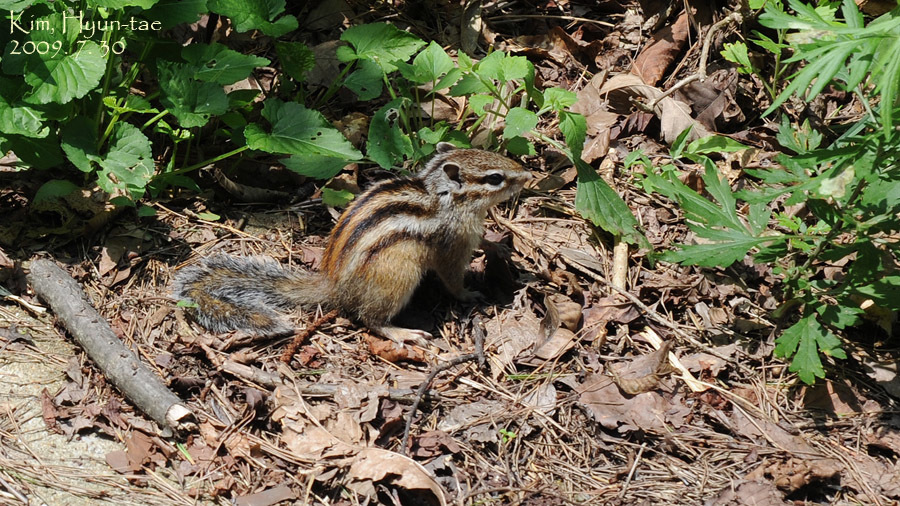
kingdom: Animalia
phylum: Chordata
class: Mammalia
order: Rodentia
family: Sciuridae
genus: Tamias
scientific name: Tamias sibiricus
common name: Siberian chipmunk
